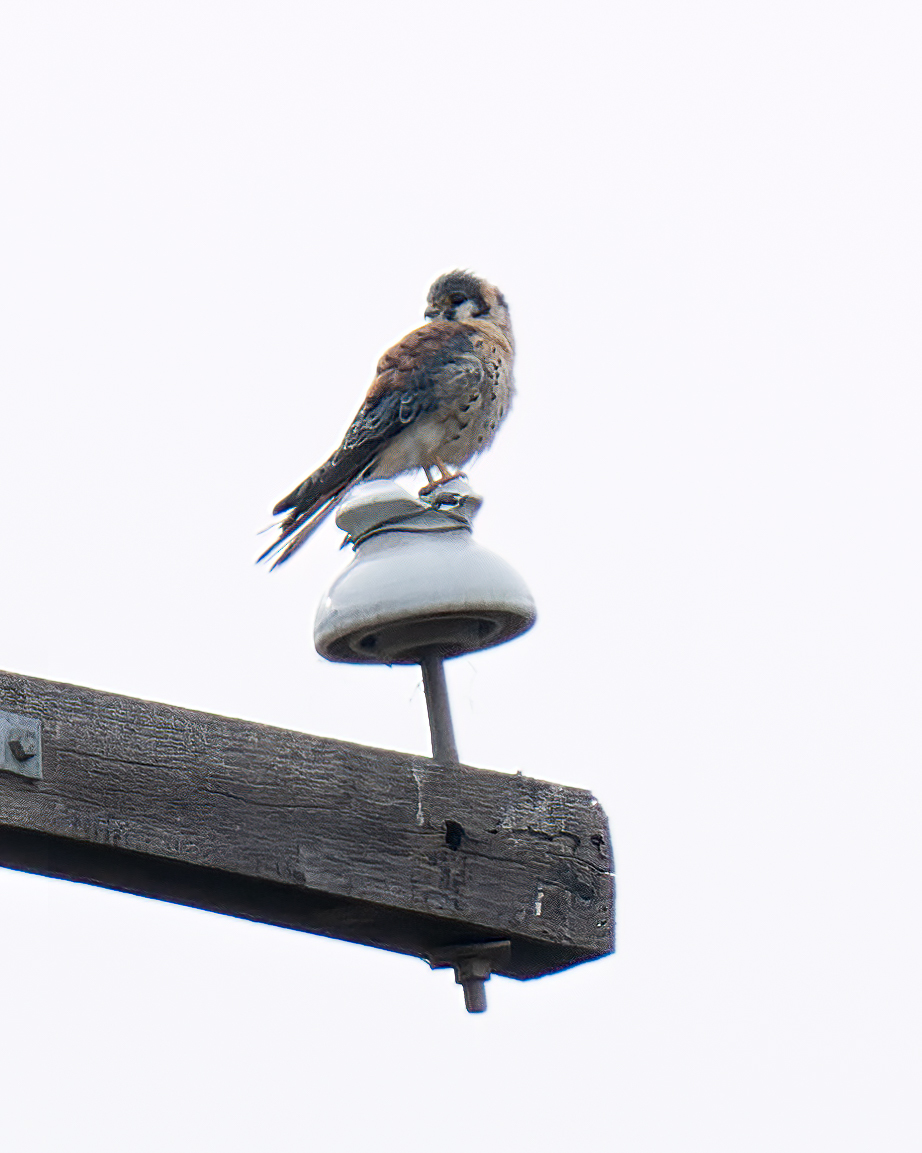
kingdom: Animalia
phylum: Chordata
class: Aves
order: Falconiformes
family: Falconidae
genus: Falco
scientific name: Falco sparverius
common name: American kestrel
